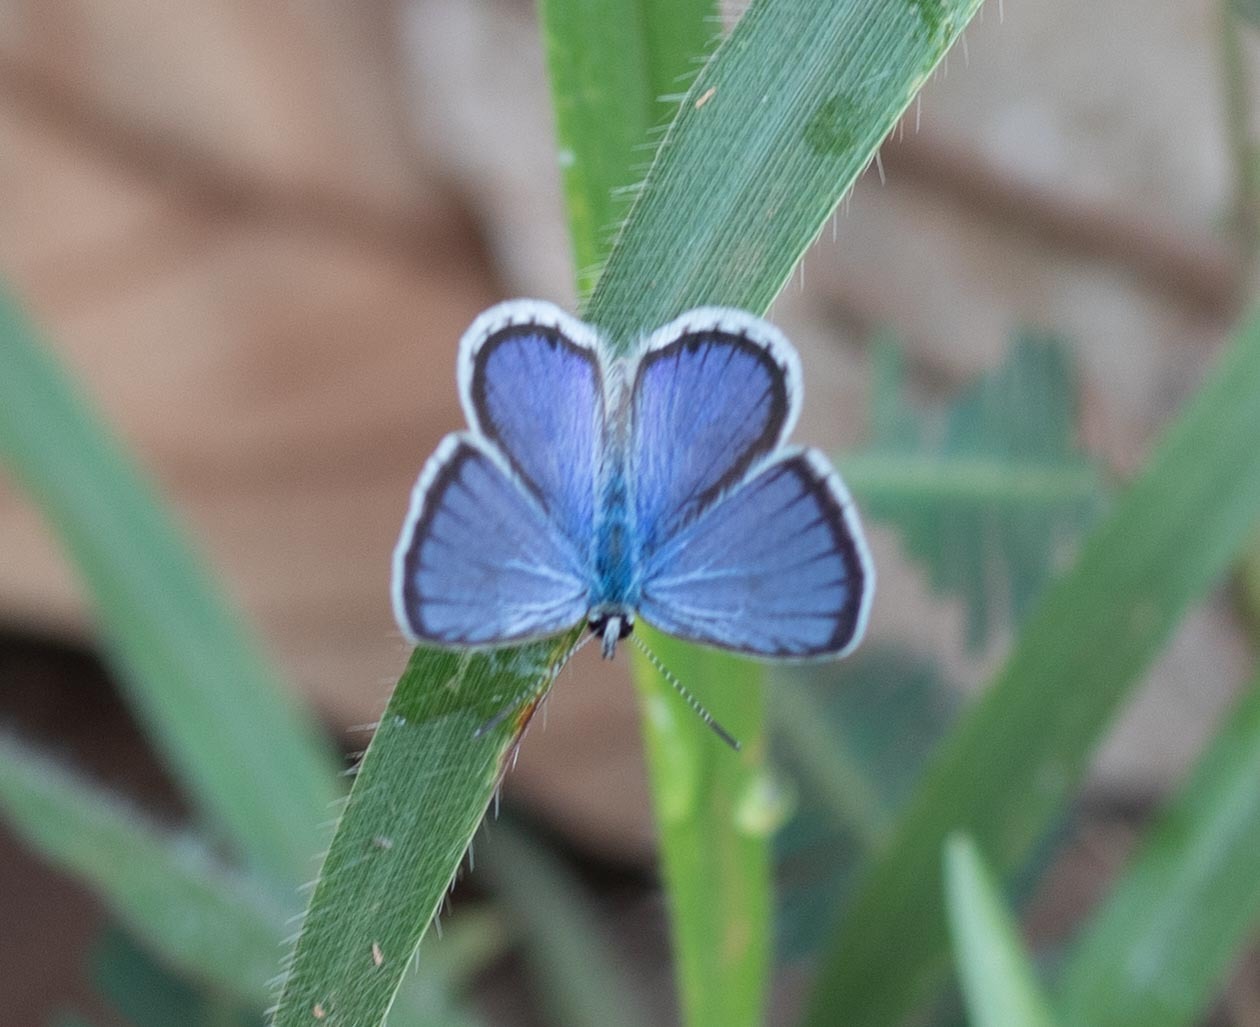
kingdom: Animalia
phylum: Arthropoda
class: Insecta
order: Lepidoptera
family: Lycaenidae
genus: Hemiargus
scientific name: Hemiargus hanno
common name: Common blue
